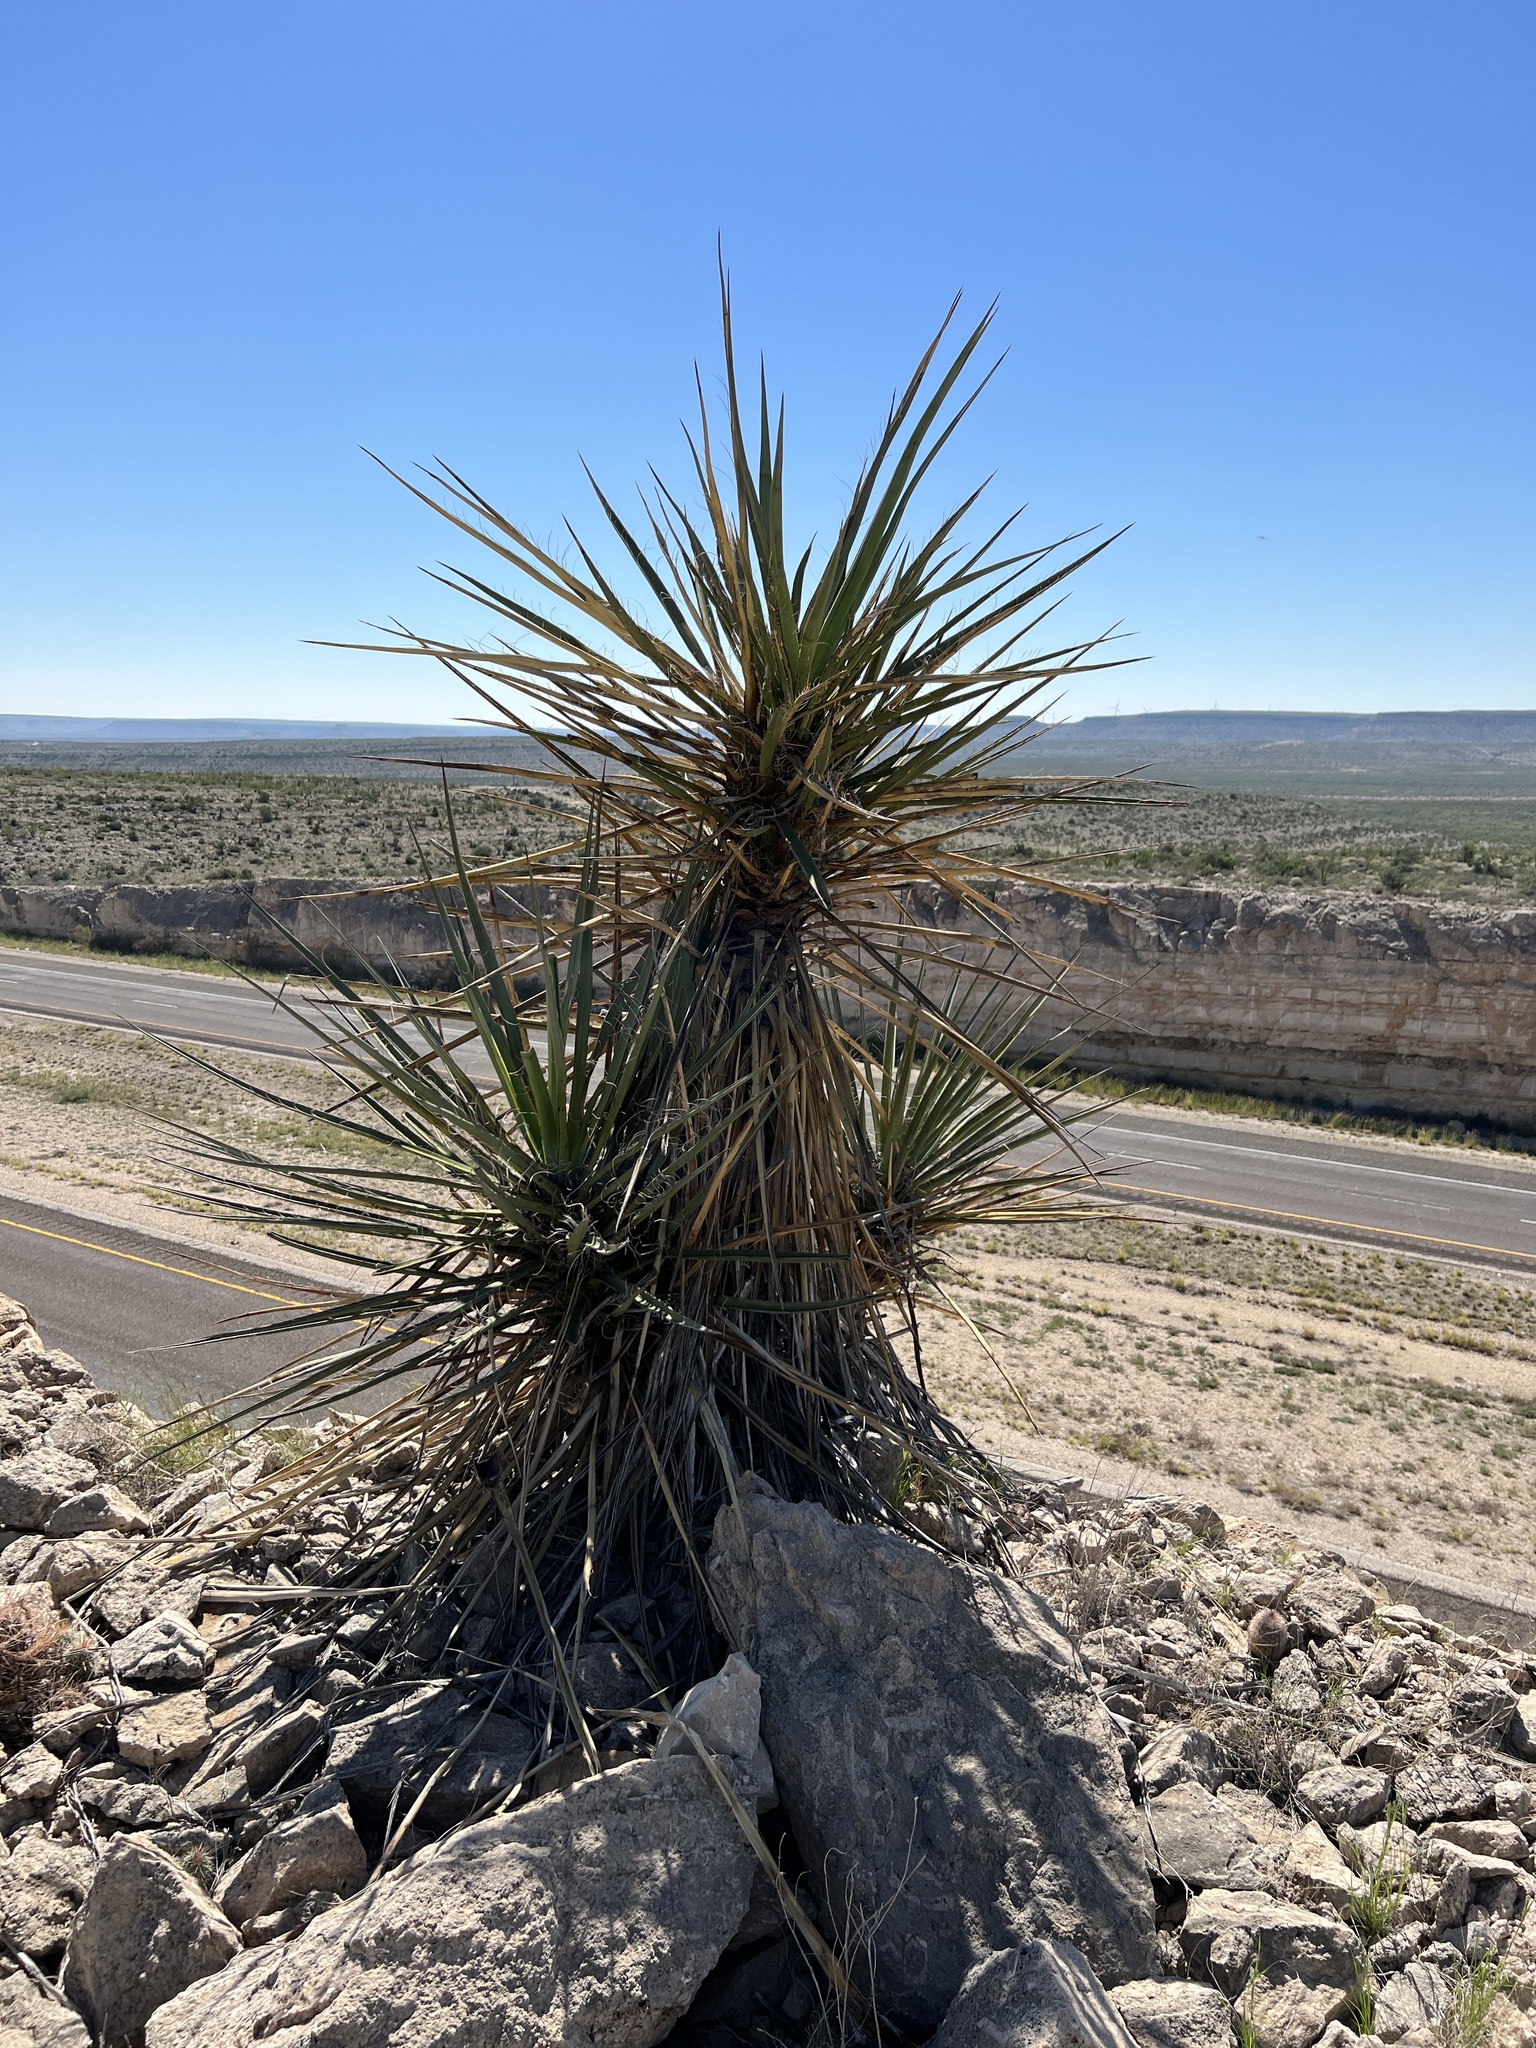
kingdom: Plantae
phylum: Tracheophyta
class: Liliopsida
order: Asparagales
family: Asparagaceae
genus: Yucca
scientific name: Yucca treculiana
